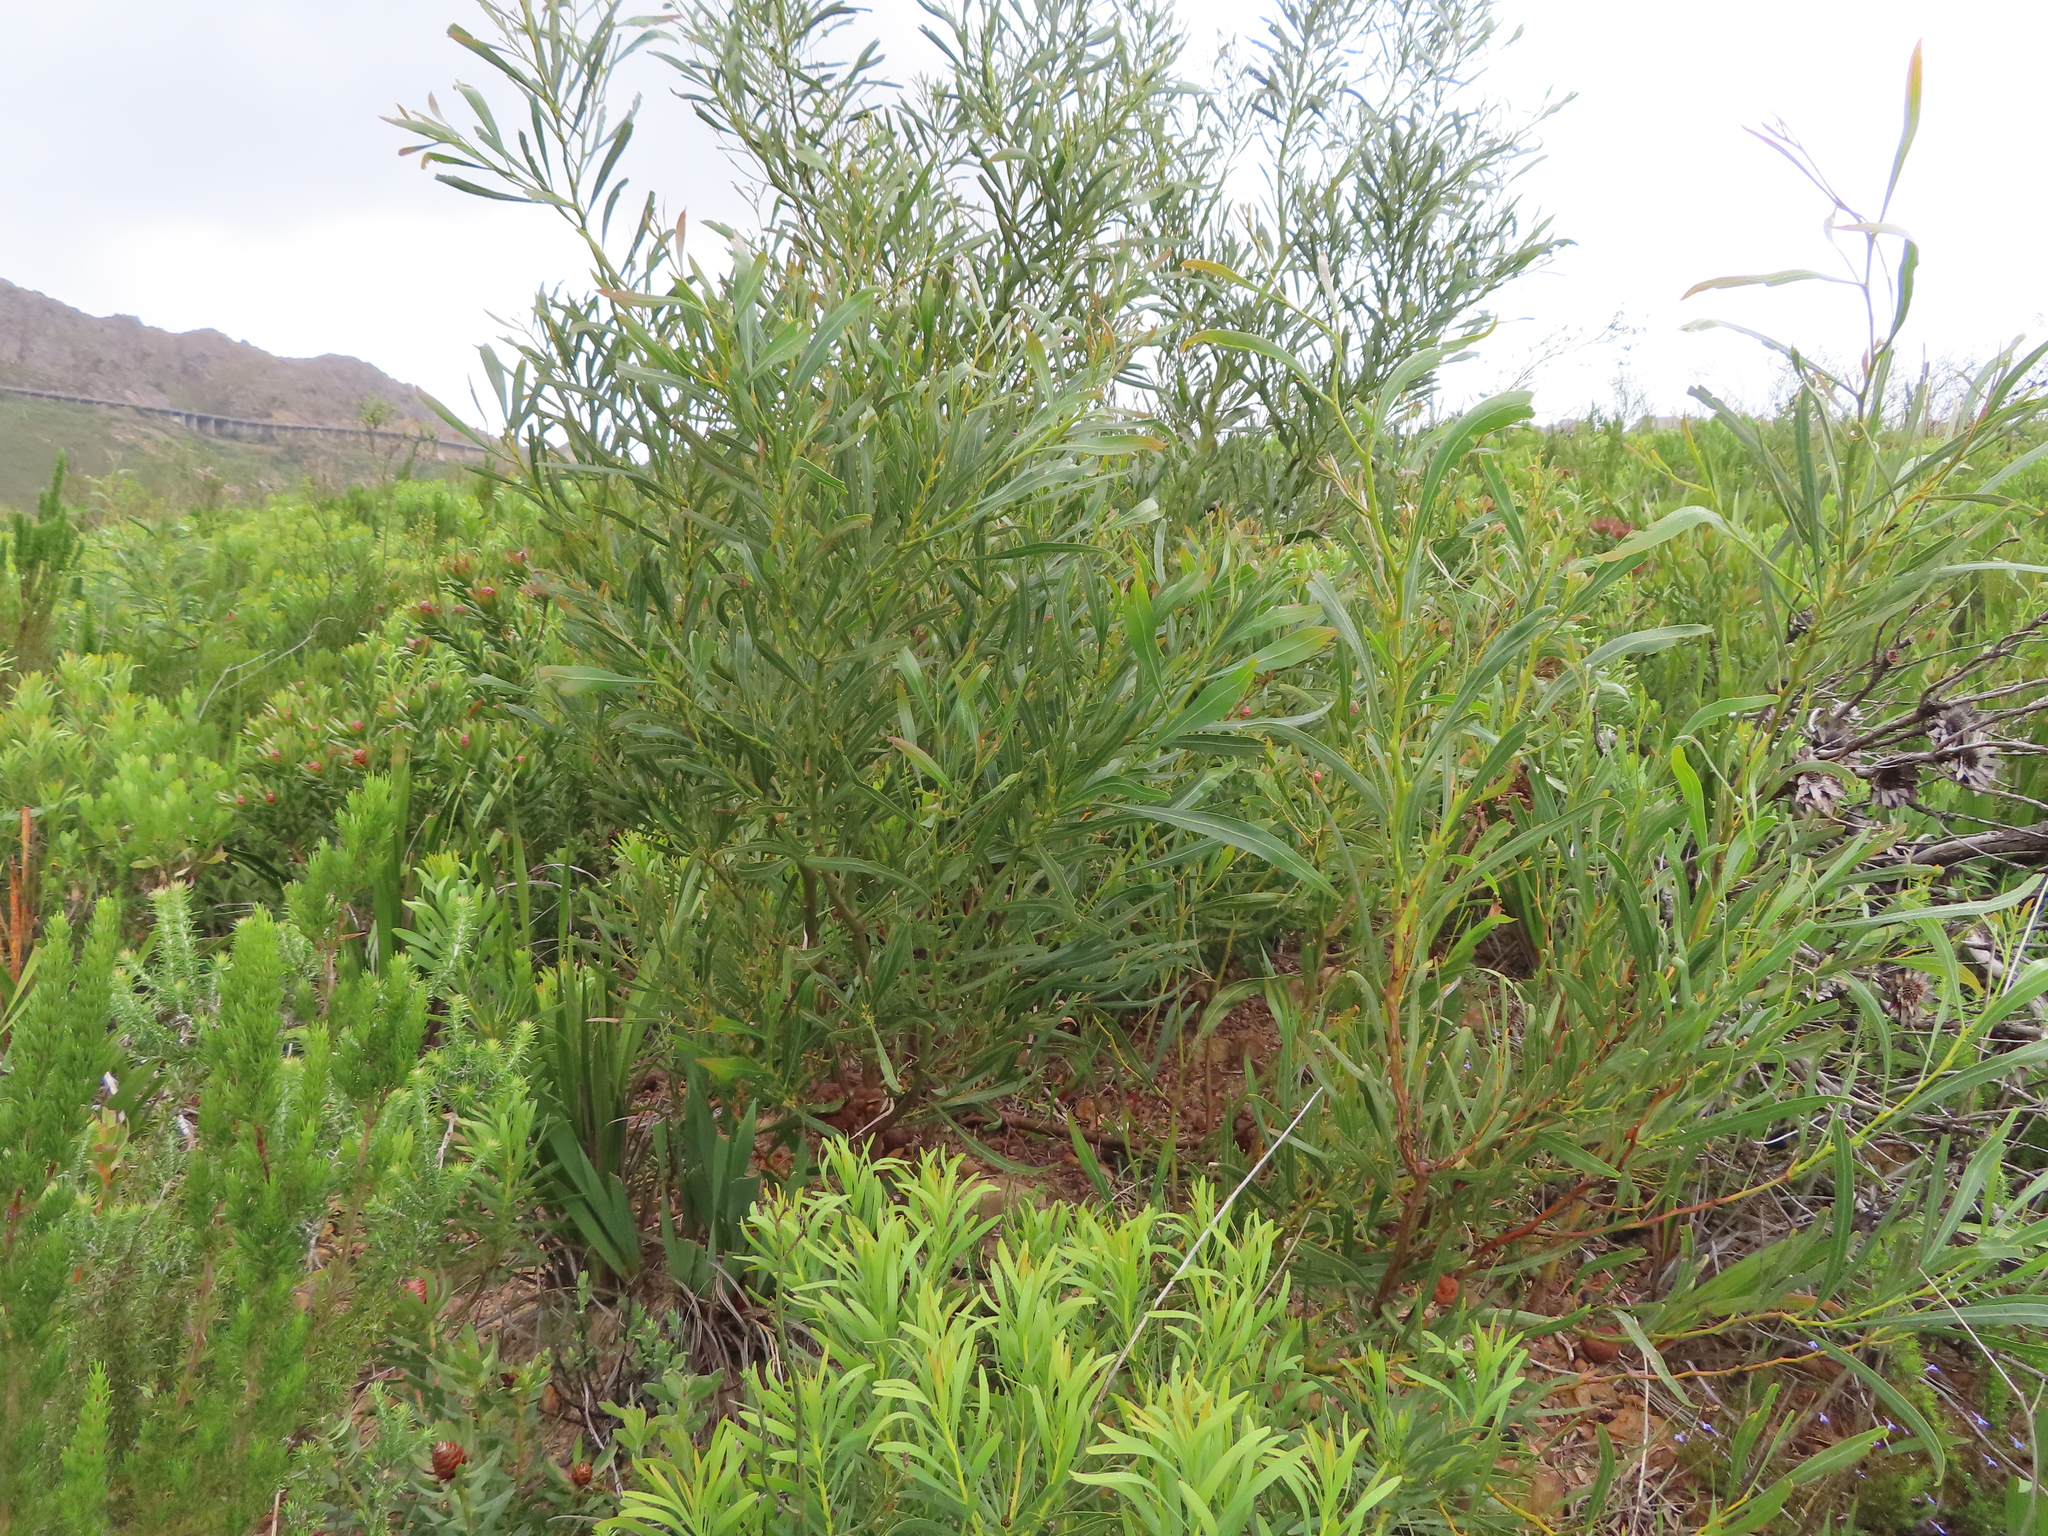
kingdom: Plantae
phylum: Tracheophyta
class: Magnoliopsida
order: Fabales
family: Fabaceae
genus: Acacia
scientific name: Acacia saligna
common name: Orange wattle
